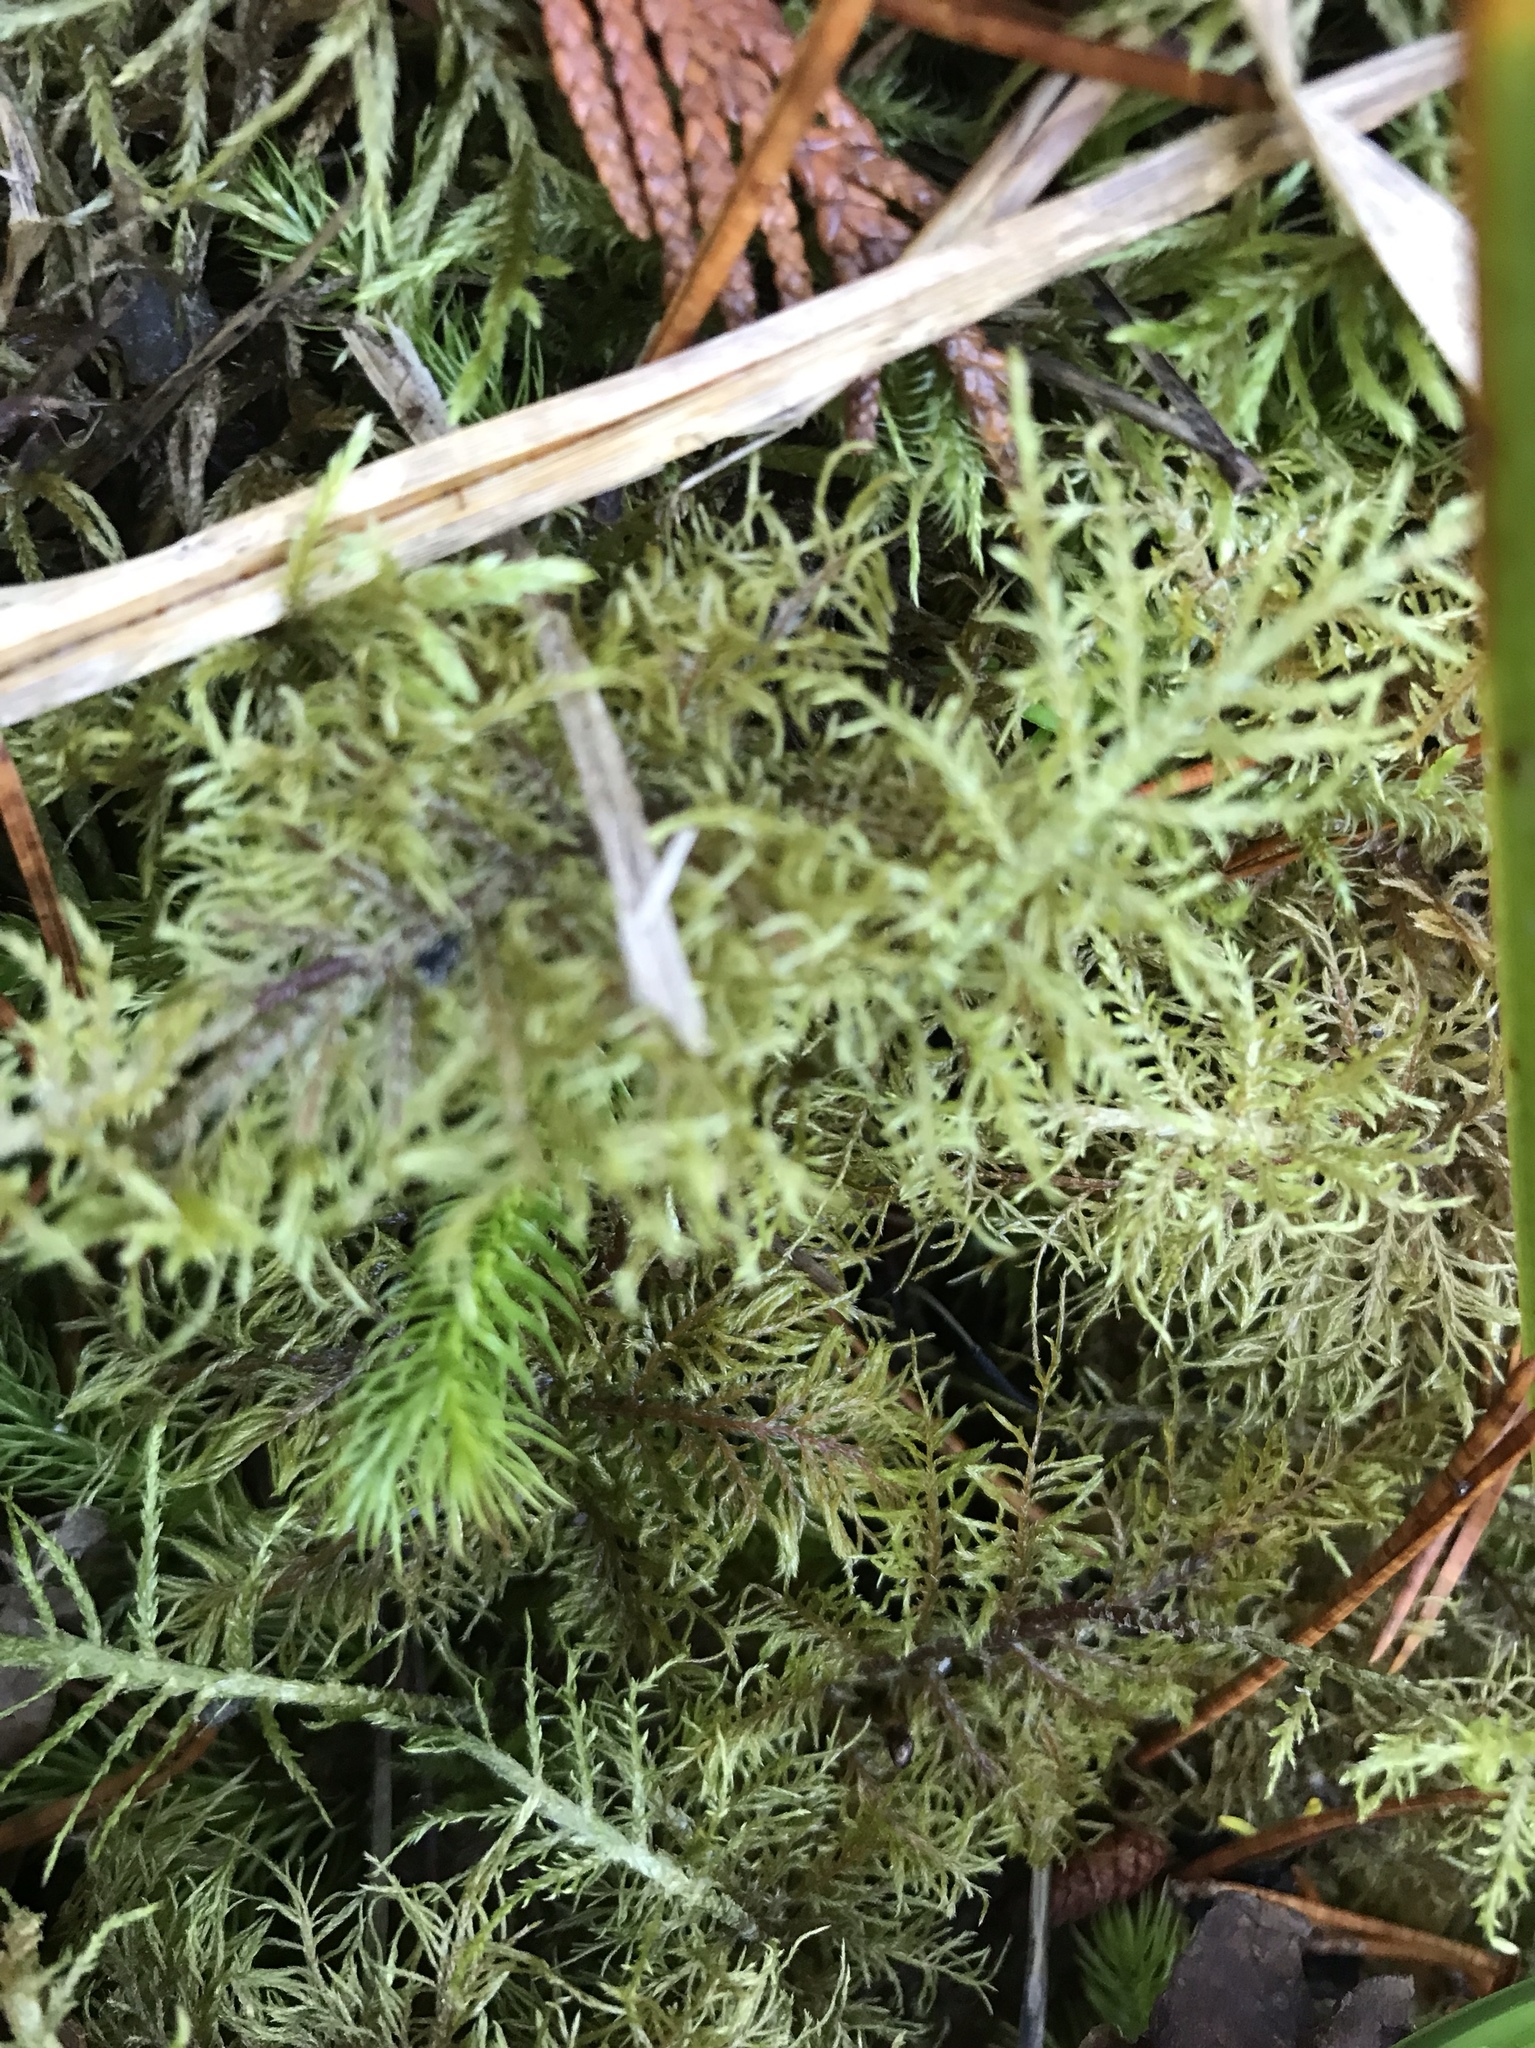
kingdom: Plantae
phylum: Bryophyta
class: Bryopsida
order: Hypnales
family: Hylocomiaceae
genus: Hylocomium
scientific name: Hylocomium splendens
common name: Stairstep moss
